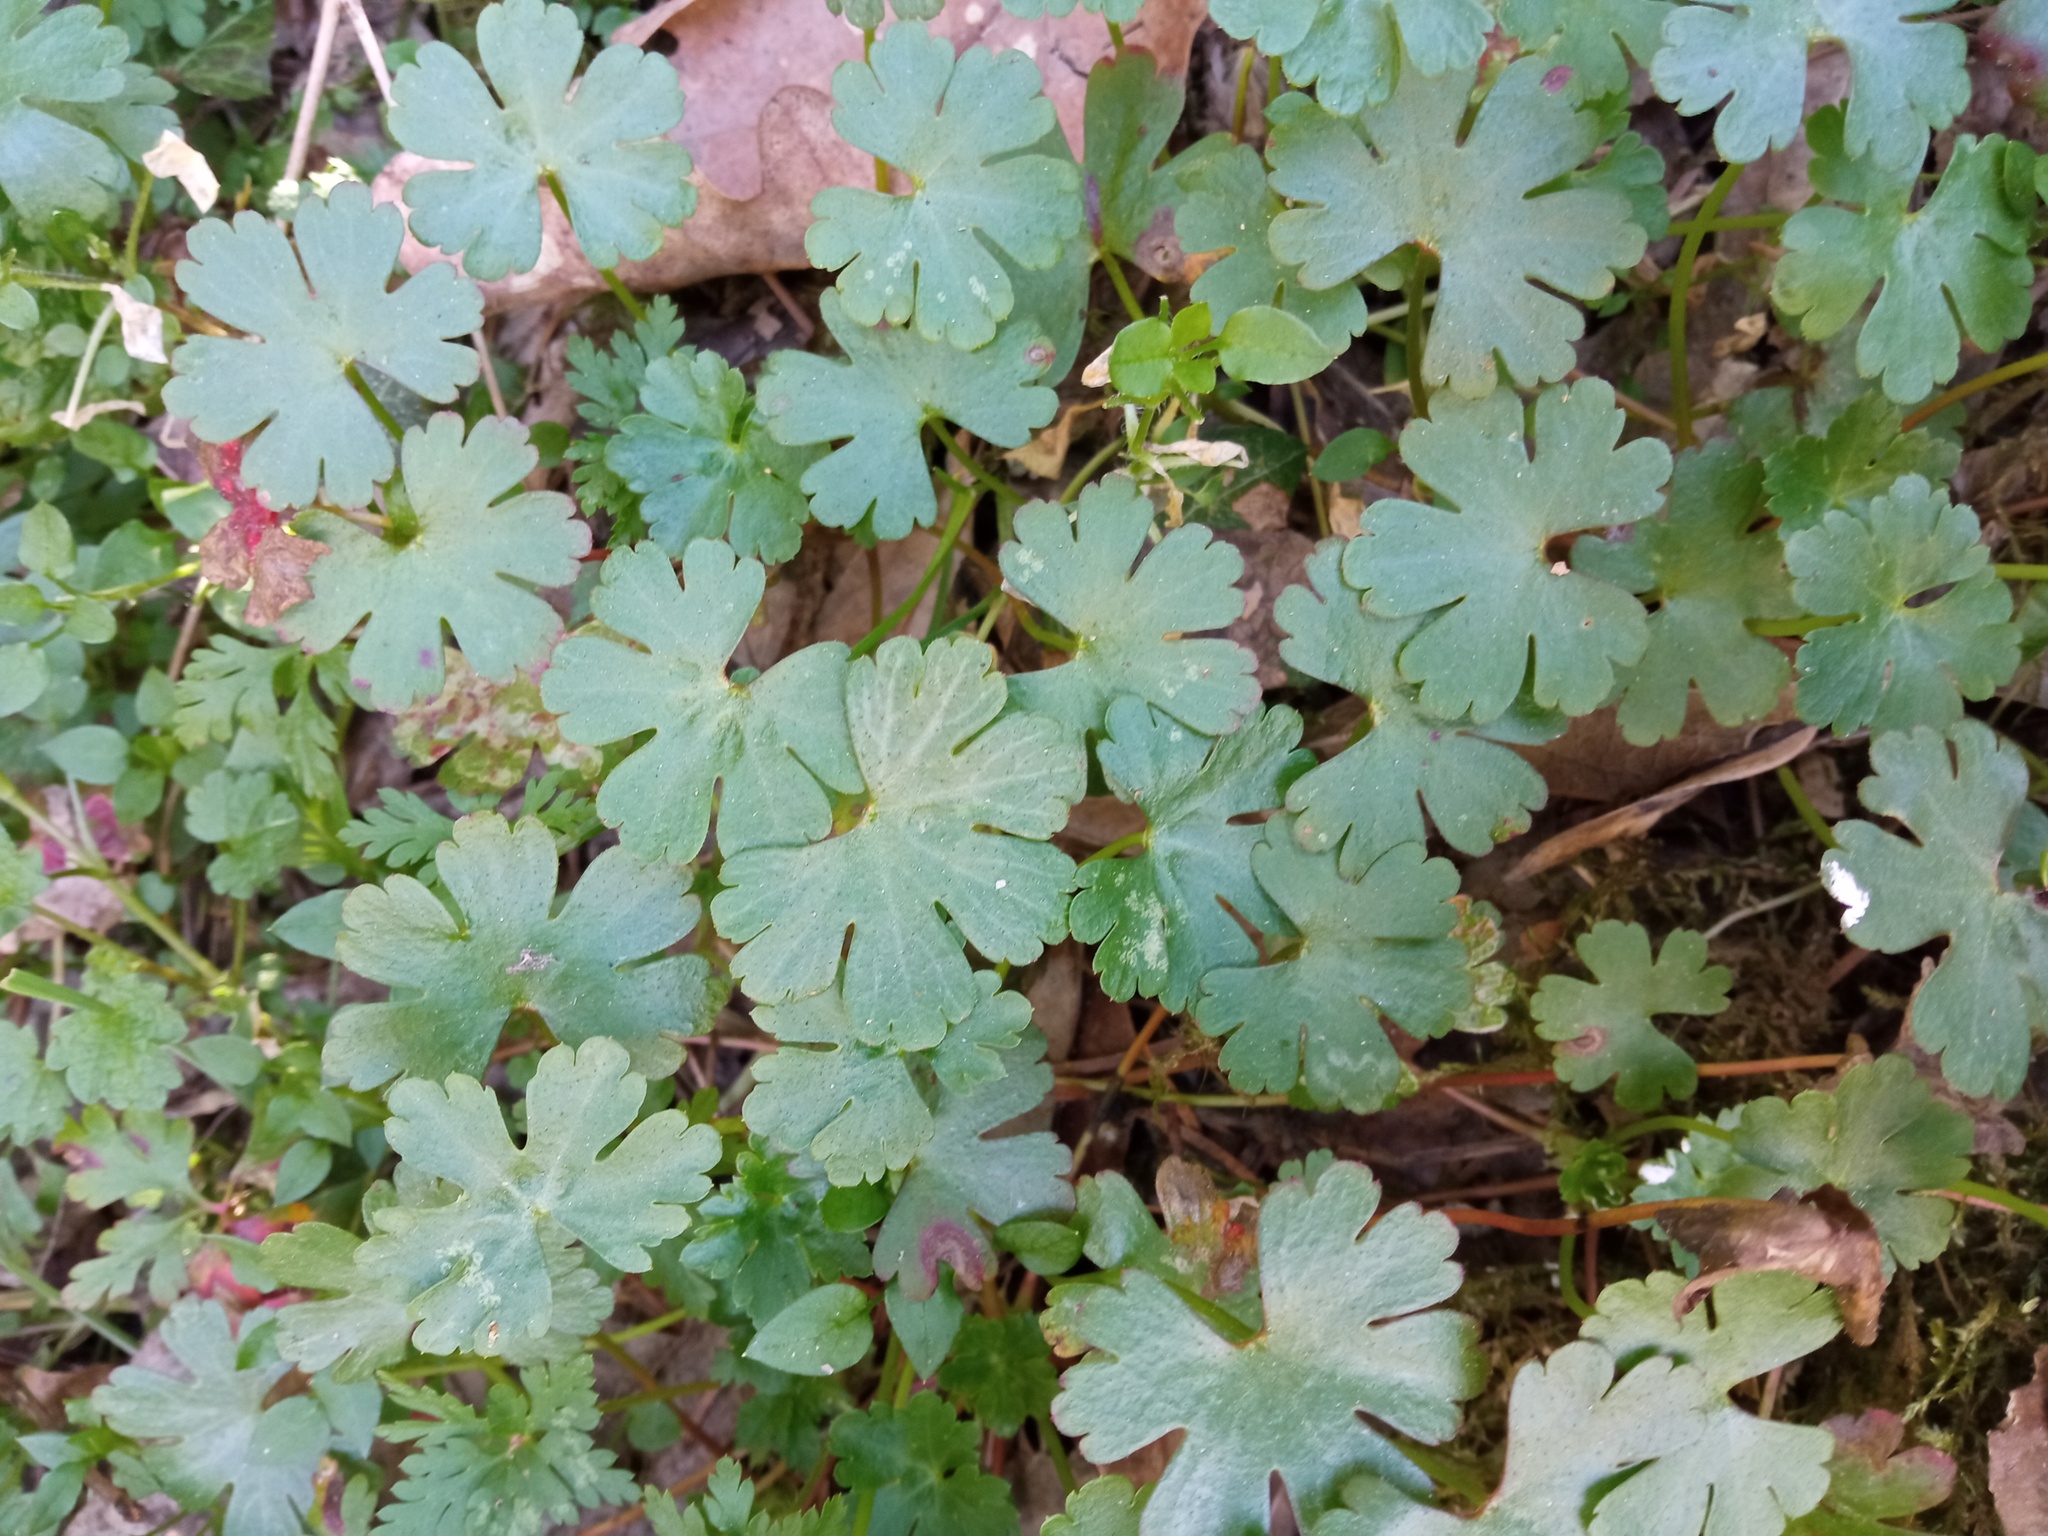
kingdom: Plantae
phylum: Tracheophyta
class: Magnoliopsida
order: Geraniales
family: Geraniaceae
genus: Geranium
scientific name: Geranium lucidum
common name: Shining crane's-bill
